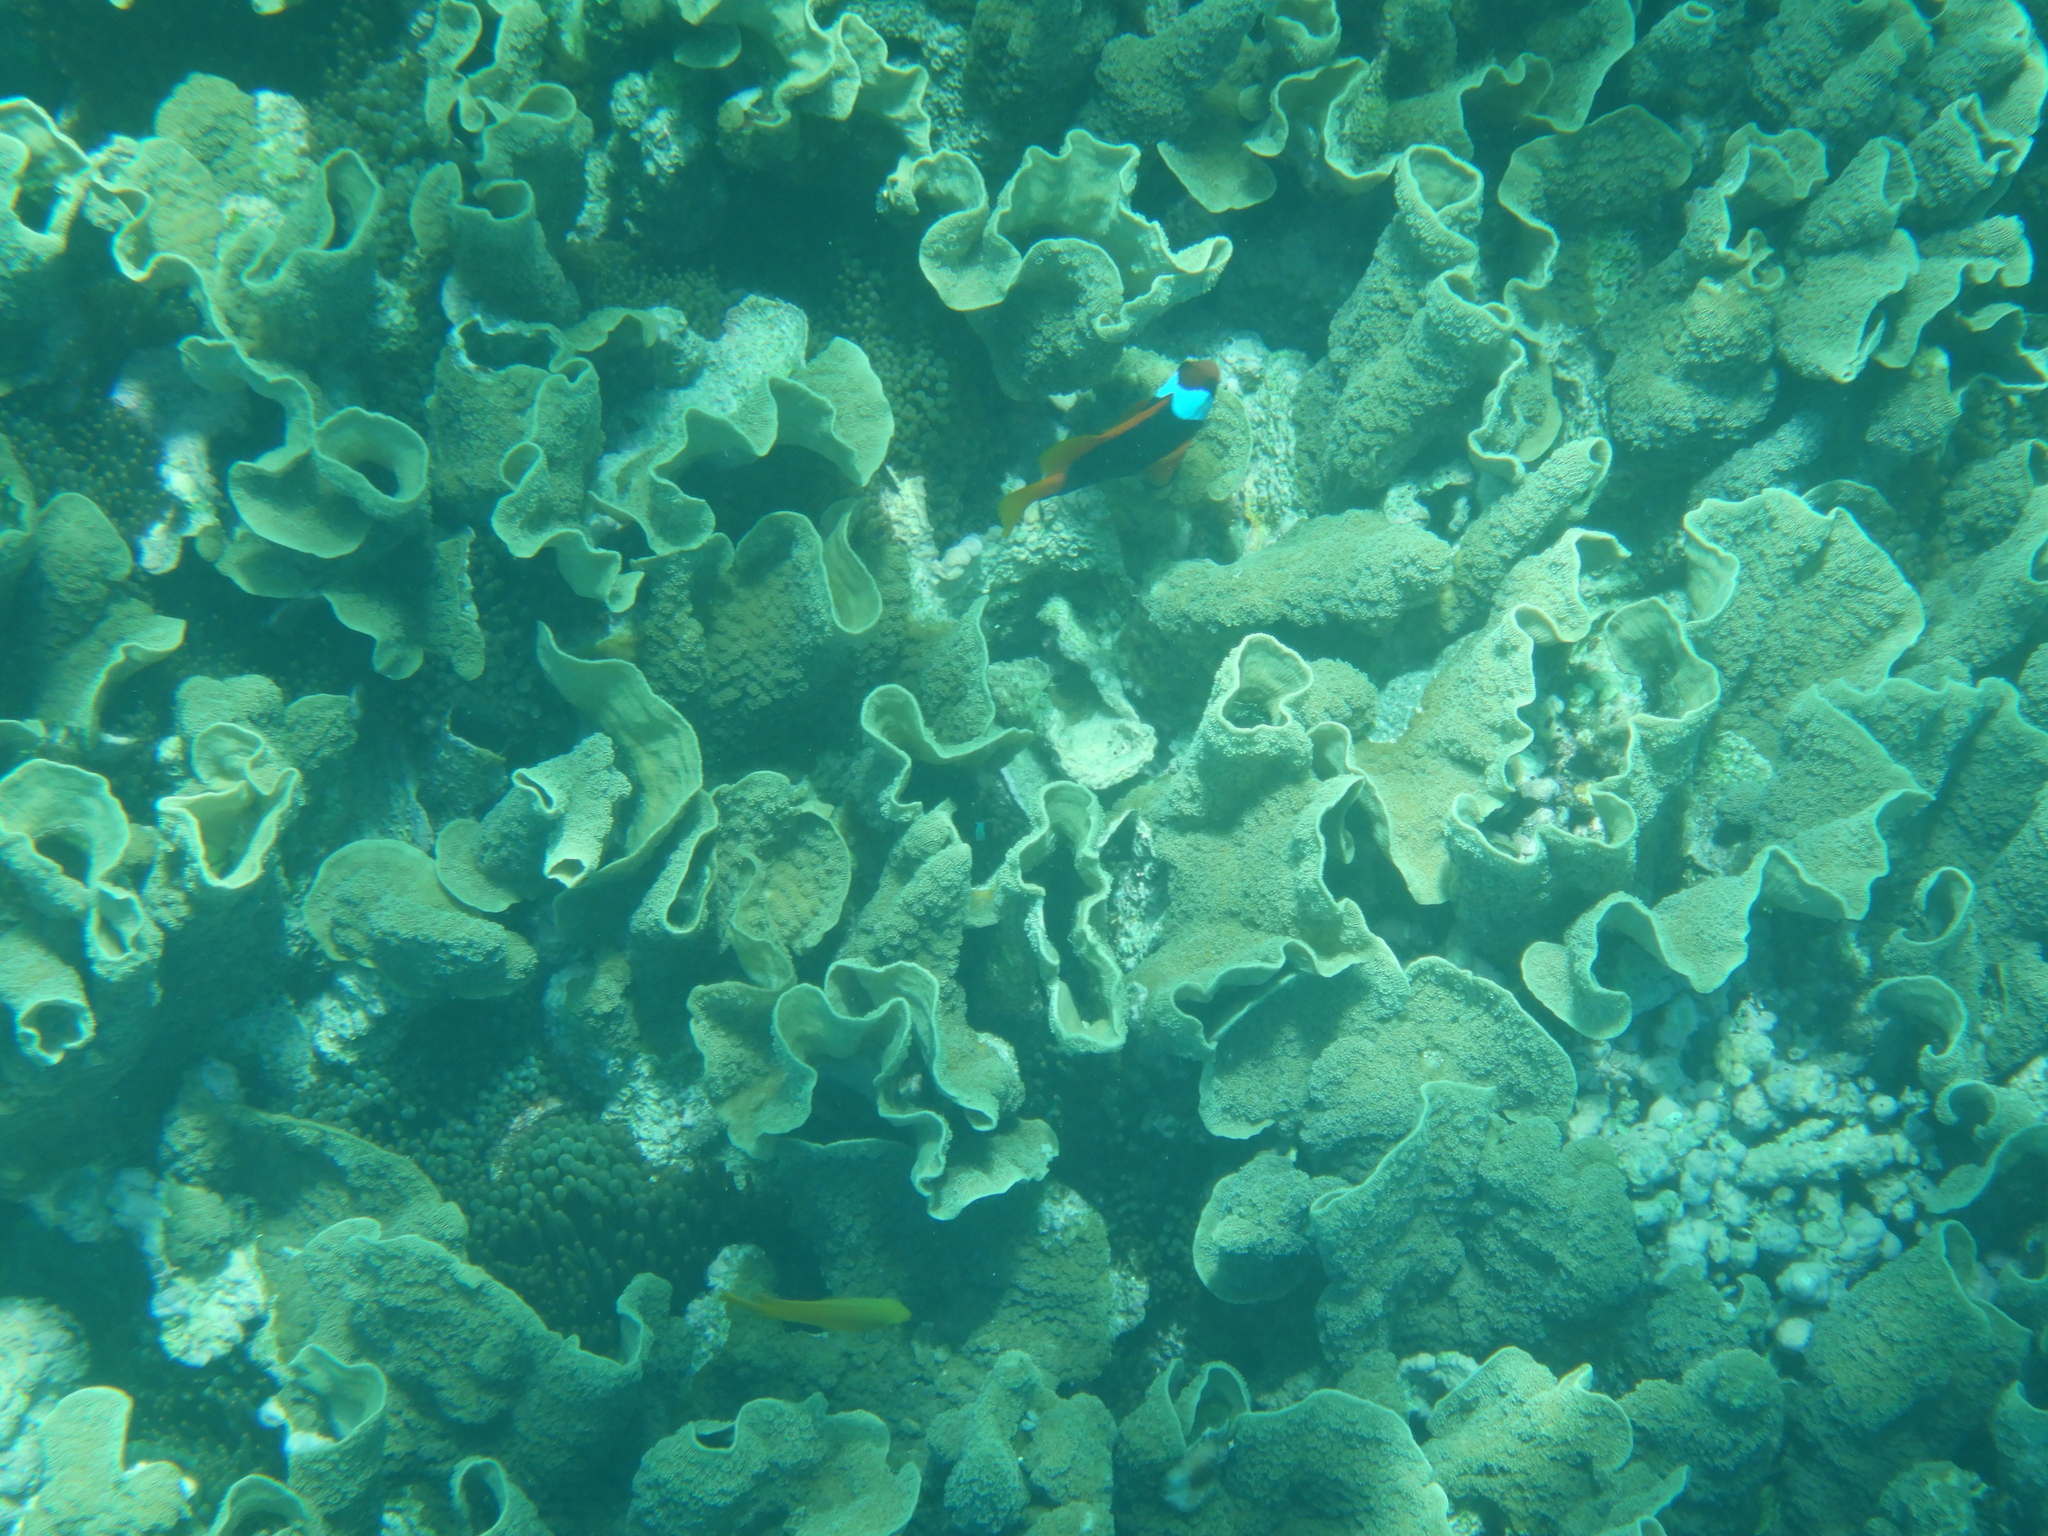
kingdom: Animalia
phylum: Chordata
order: Perciformes
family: Pomacentridae
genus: Amphiprion
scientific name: Amphiprion melanopus
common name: Black anemonefish
